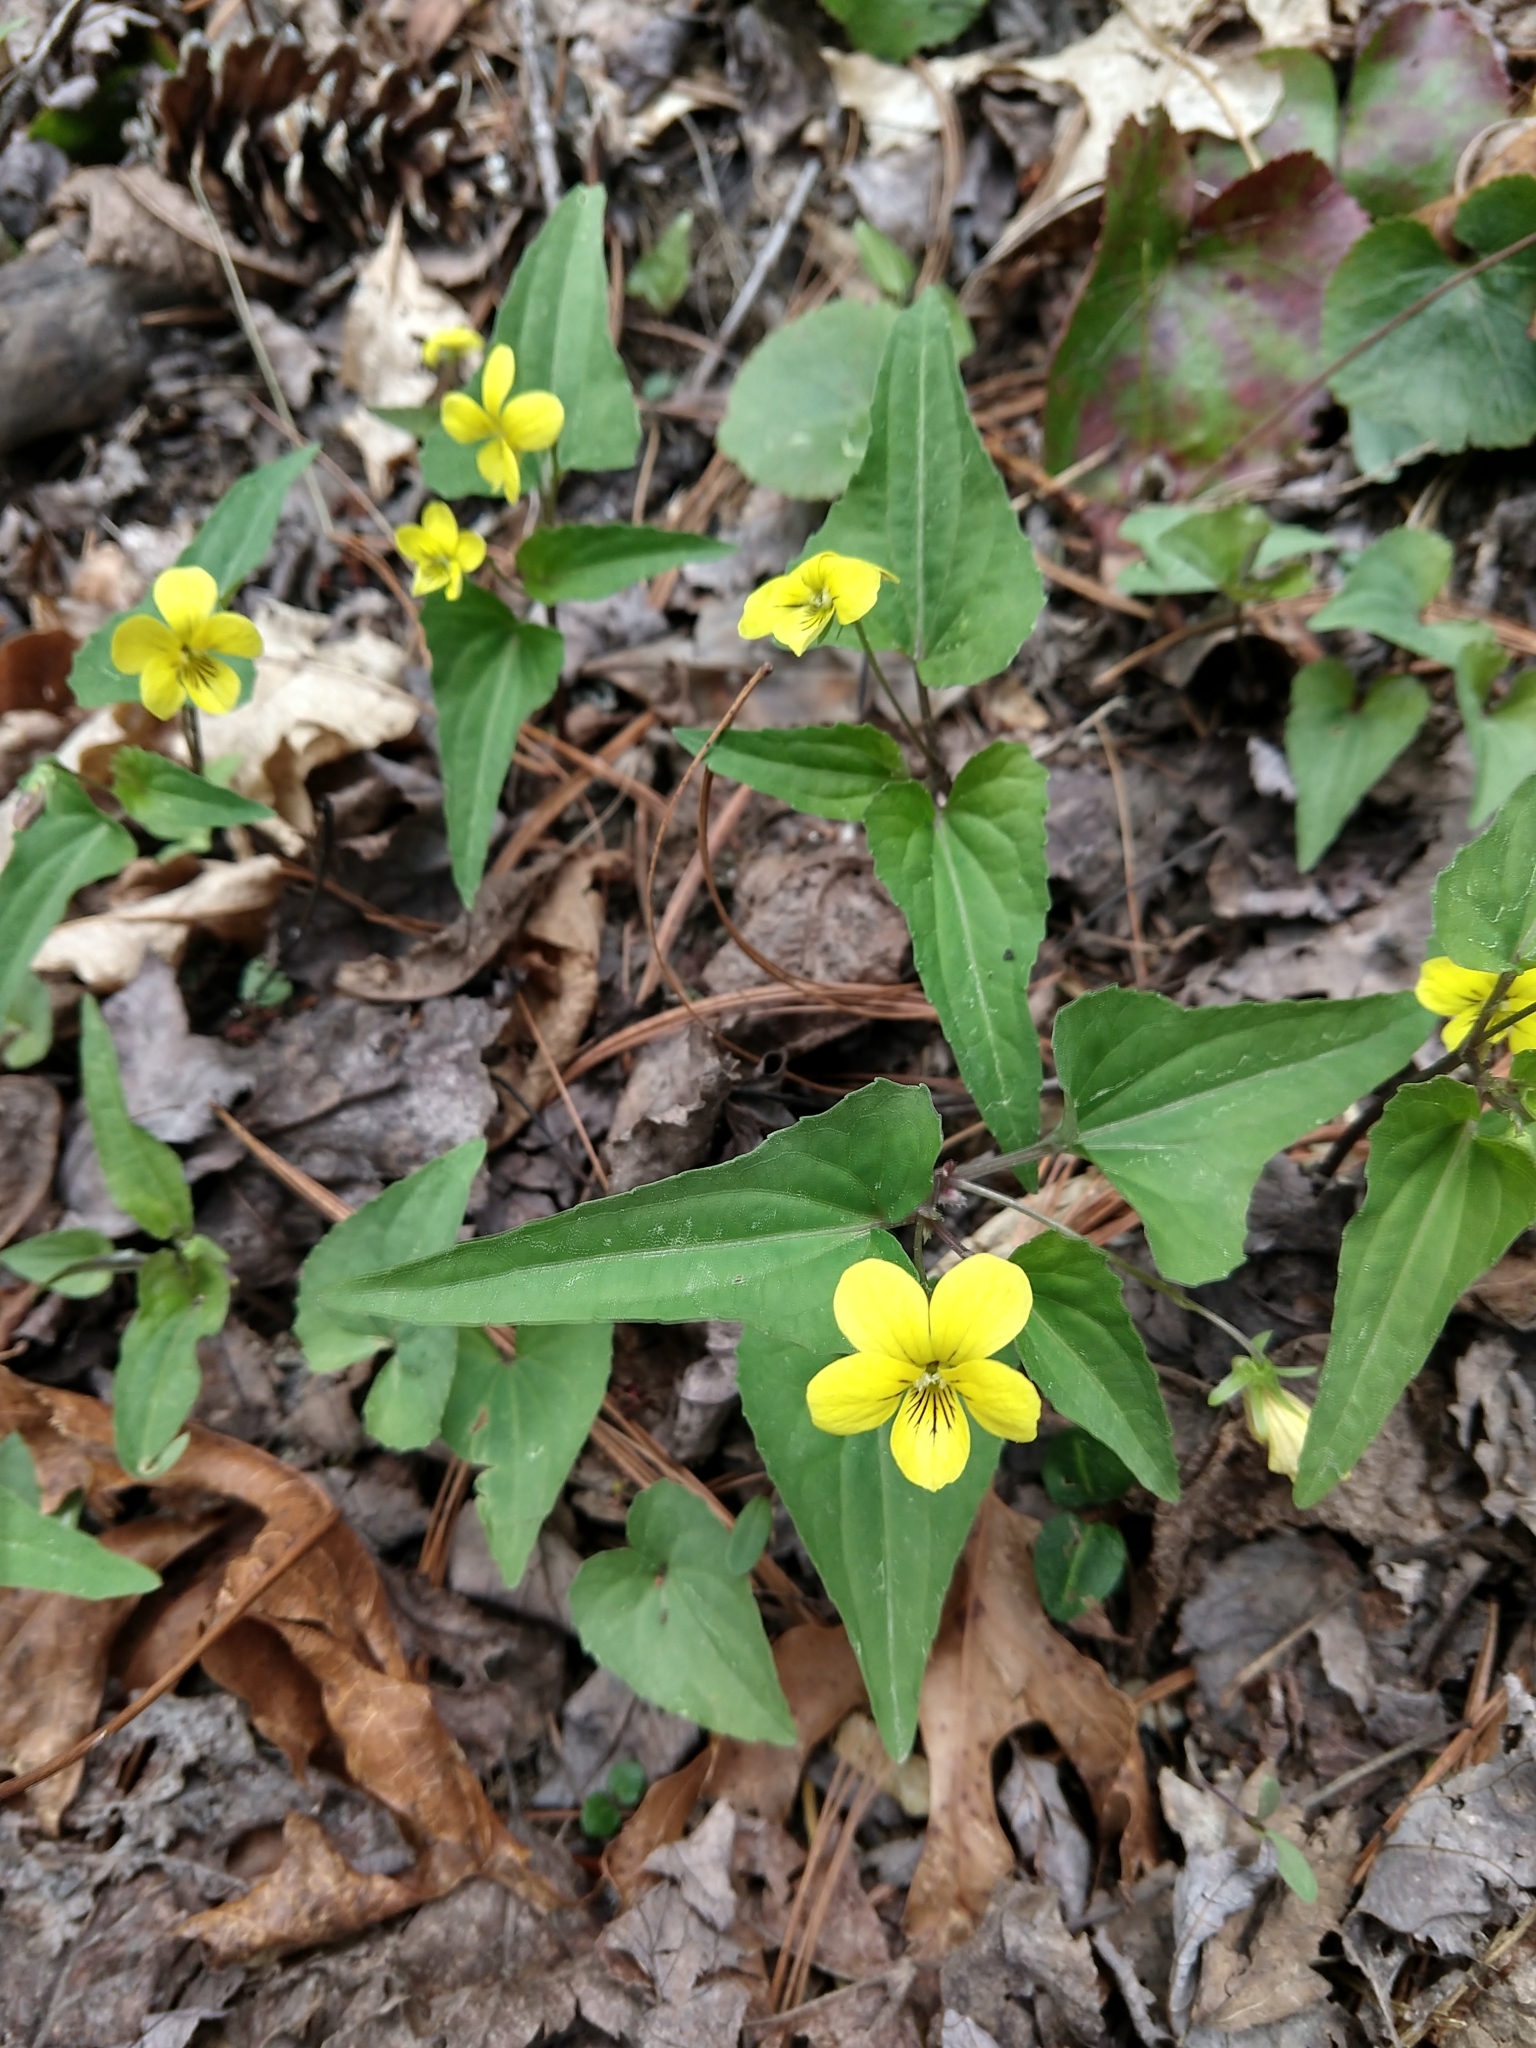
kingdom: Plantae
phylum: Tracheophyta
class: Magnoliopsida
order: Malpighiales
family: Violaceae
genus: Viola
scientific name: Viola hastata
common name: Spear-leaf violet
